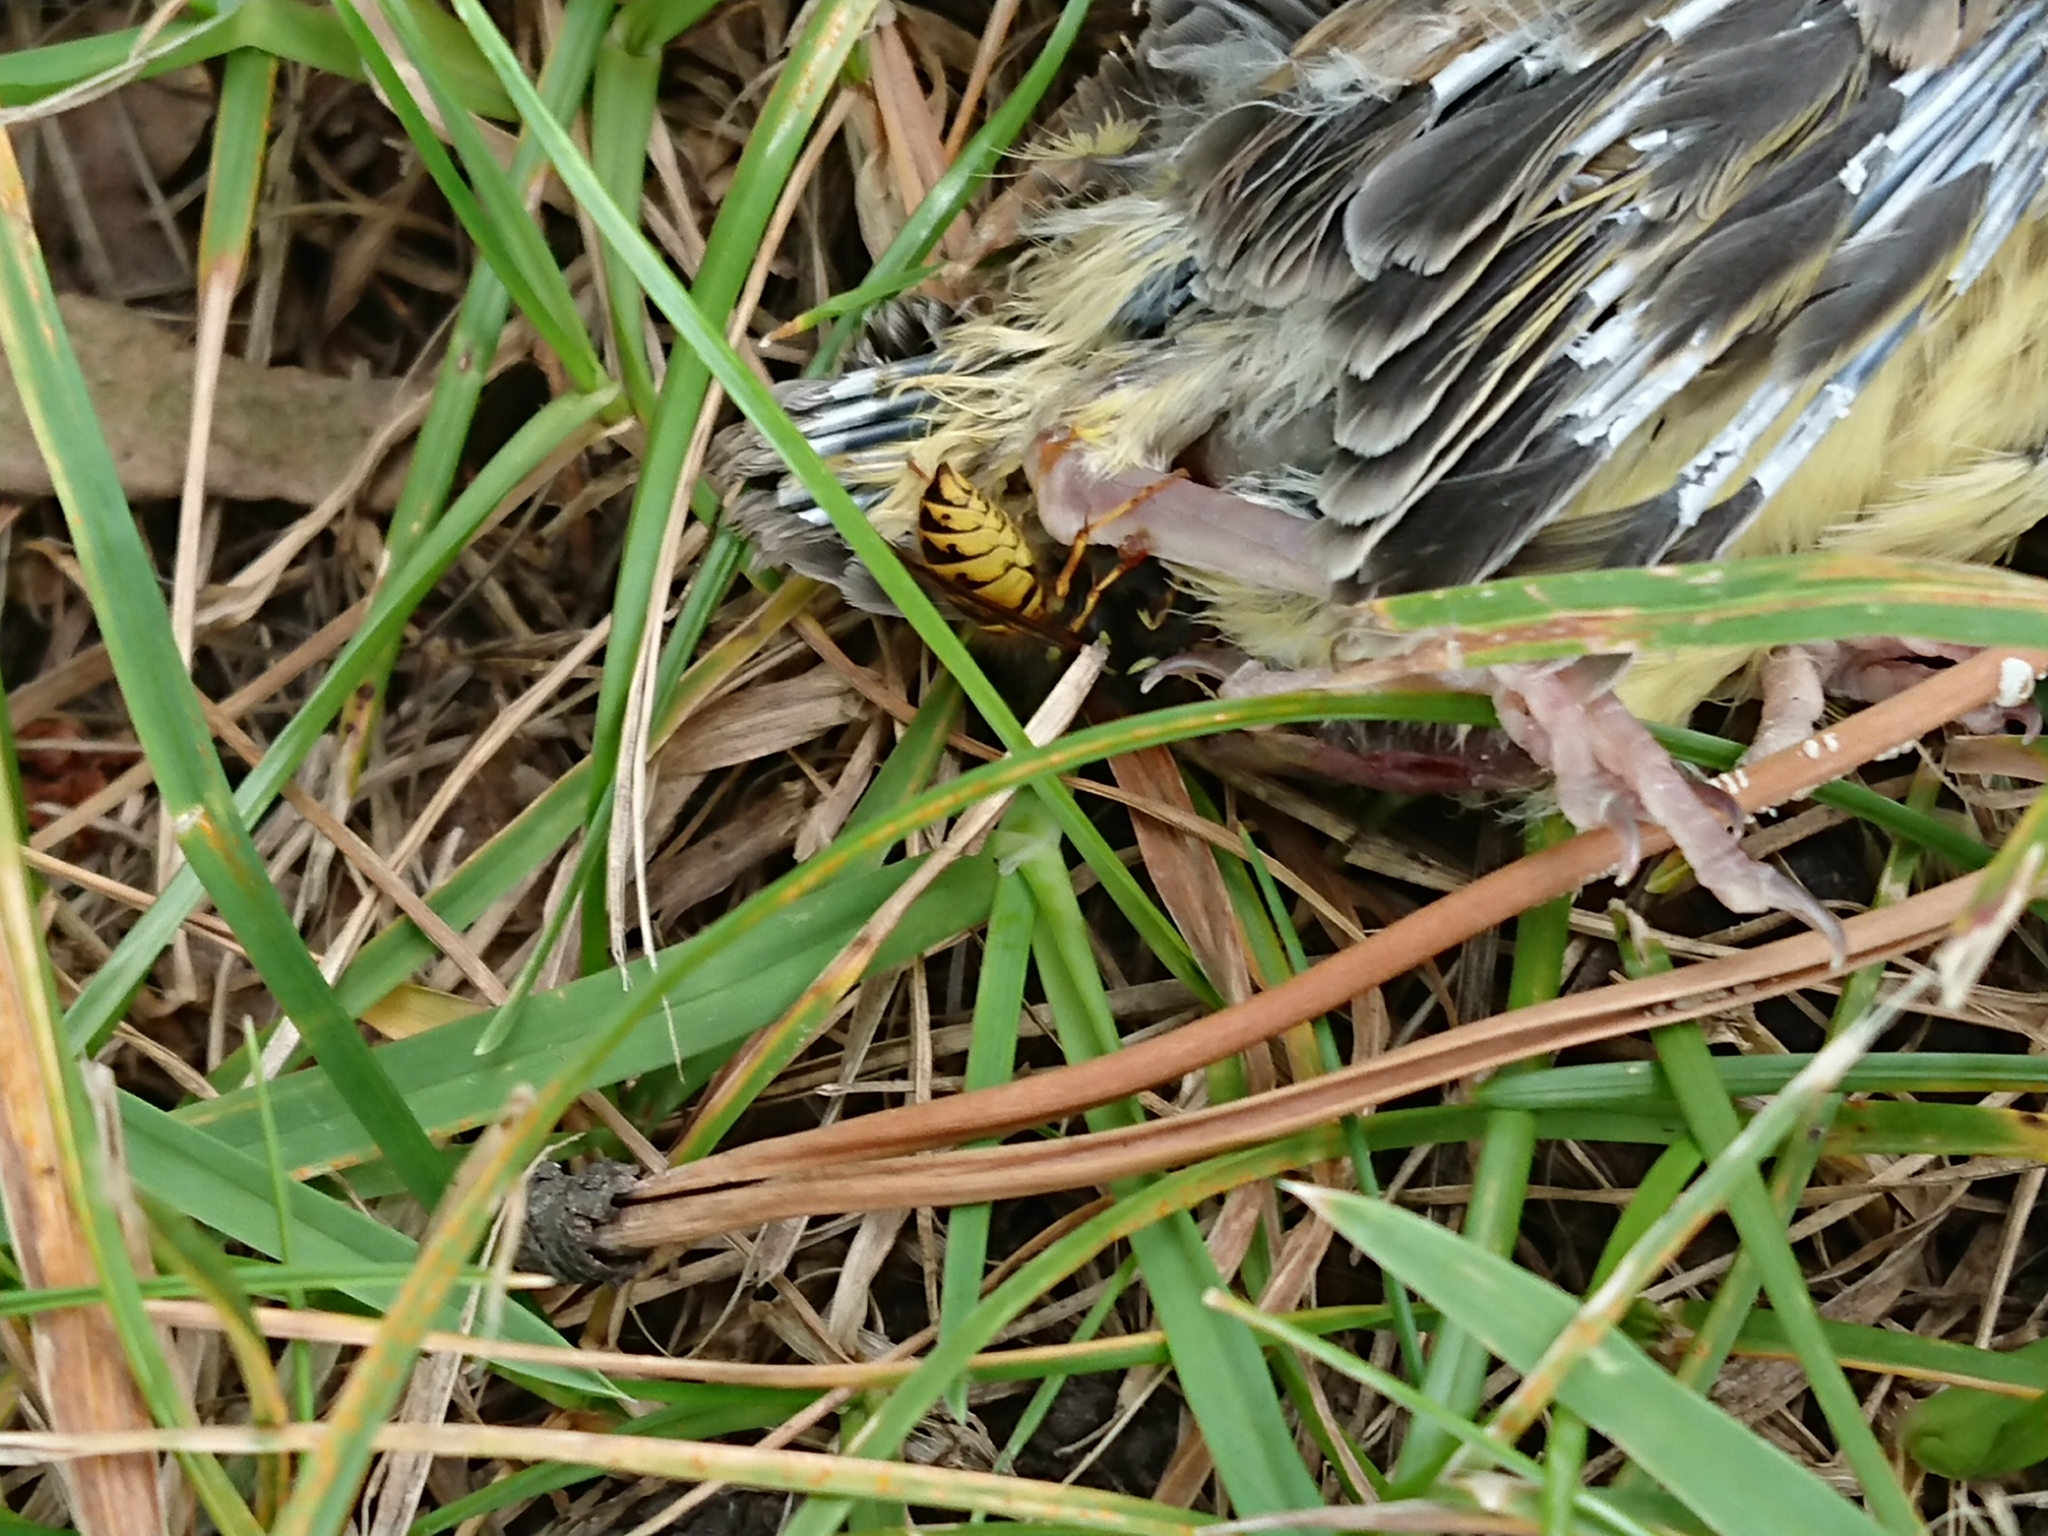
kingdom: Animalia
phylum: Arthropoda
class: Insecta
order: Hymenoptera
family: Vespidae
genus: Vespula
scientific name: Vespula vulgaris
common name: Common wasp
